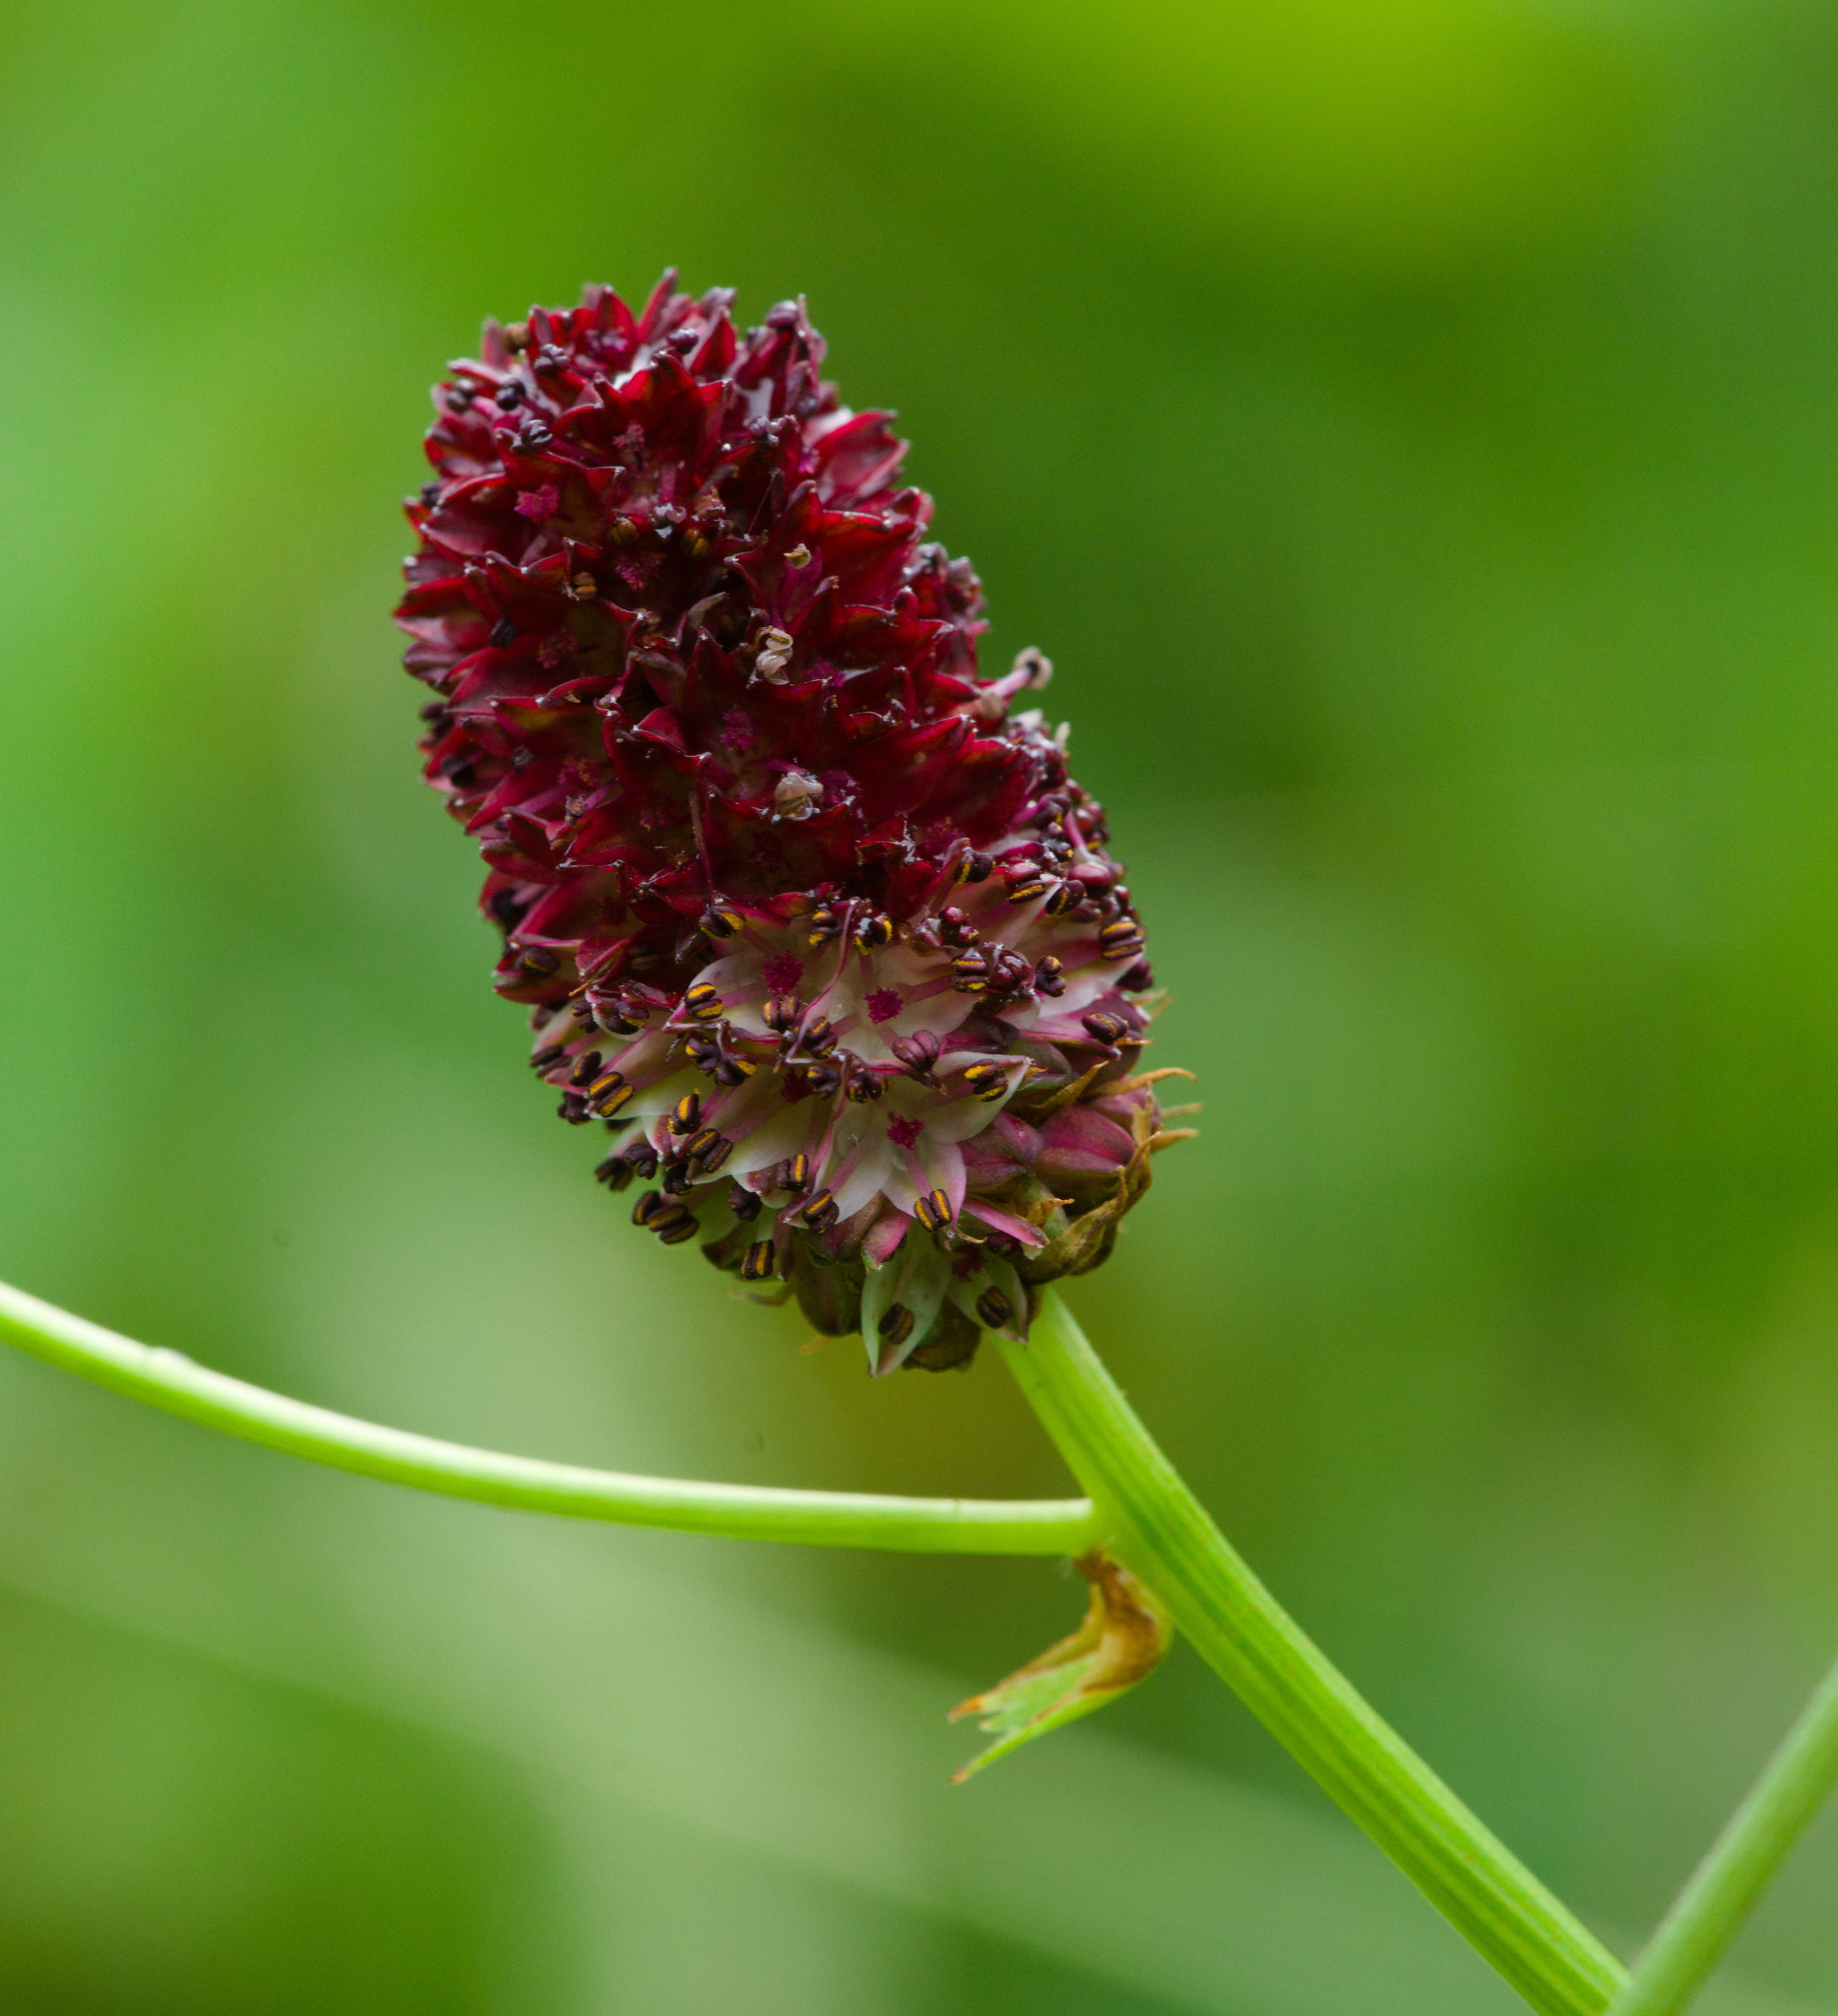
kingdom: Plantae
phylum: Tracheophyta
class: Magnoliopsida
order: Rosales
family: Rosaceae
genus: Sanguisorba
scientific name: Sanguisorba officinalis
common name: Great burnet
